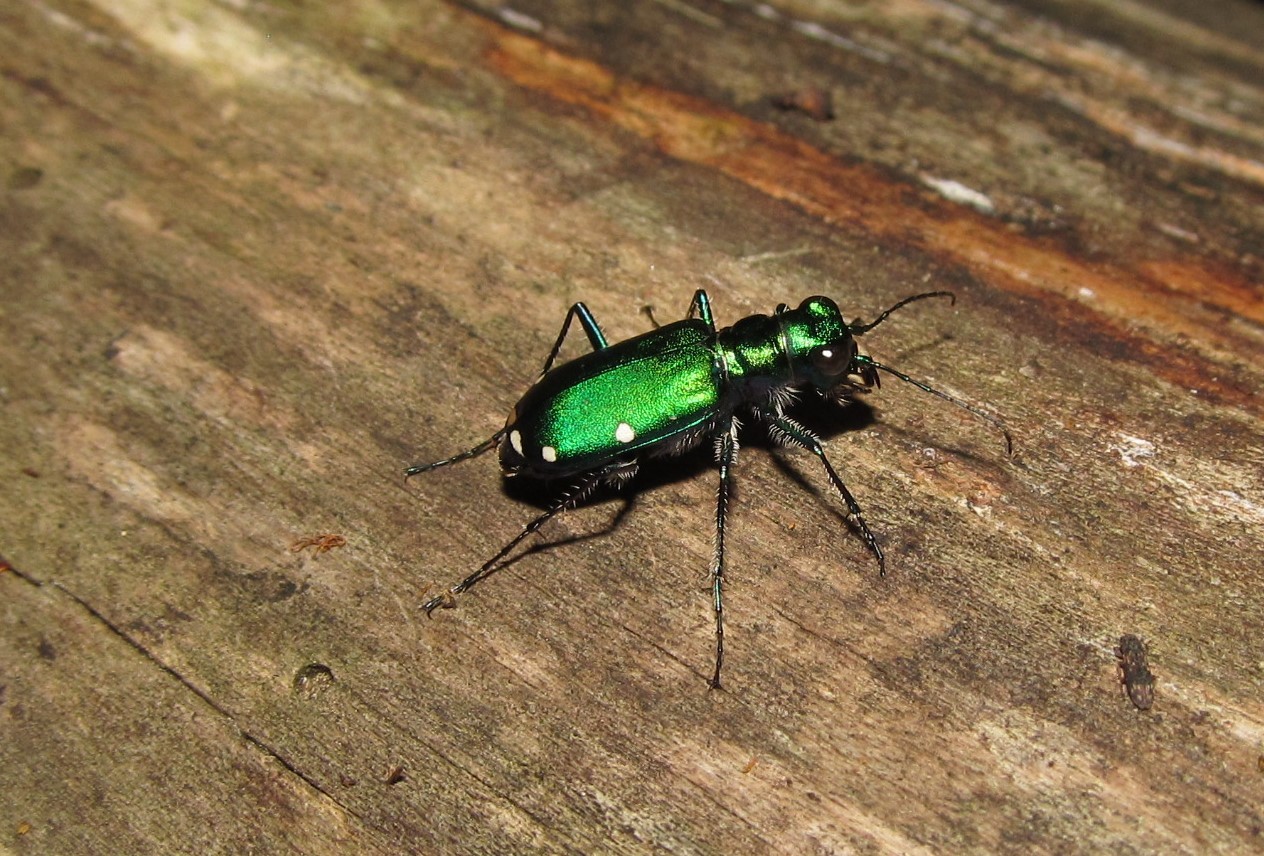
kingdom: Animalia
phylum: Arthropoda
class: Insecta
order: Coleoptera
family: Carabidae
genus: Cicindela
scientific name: Cicindela sexguttata
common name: Six-spotted tiger beetle
